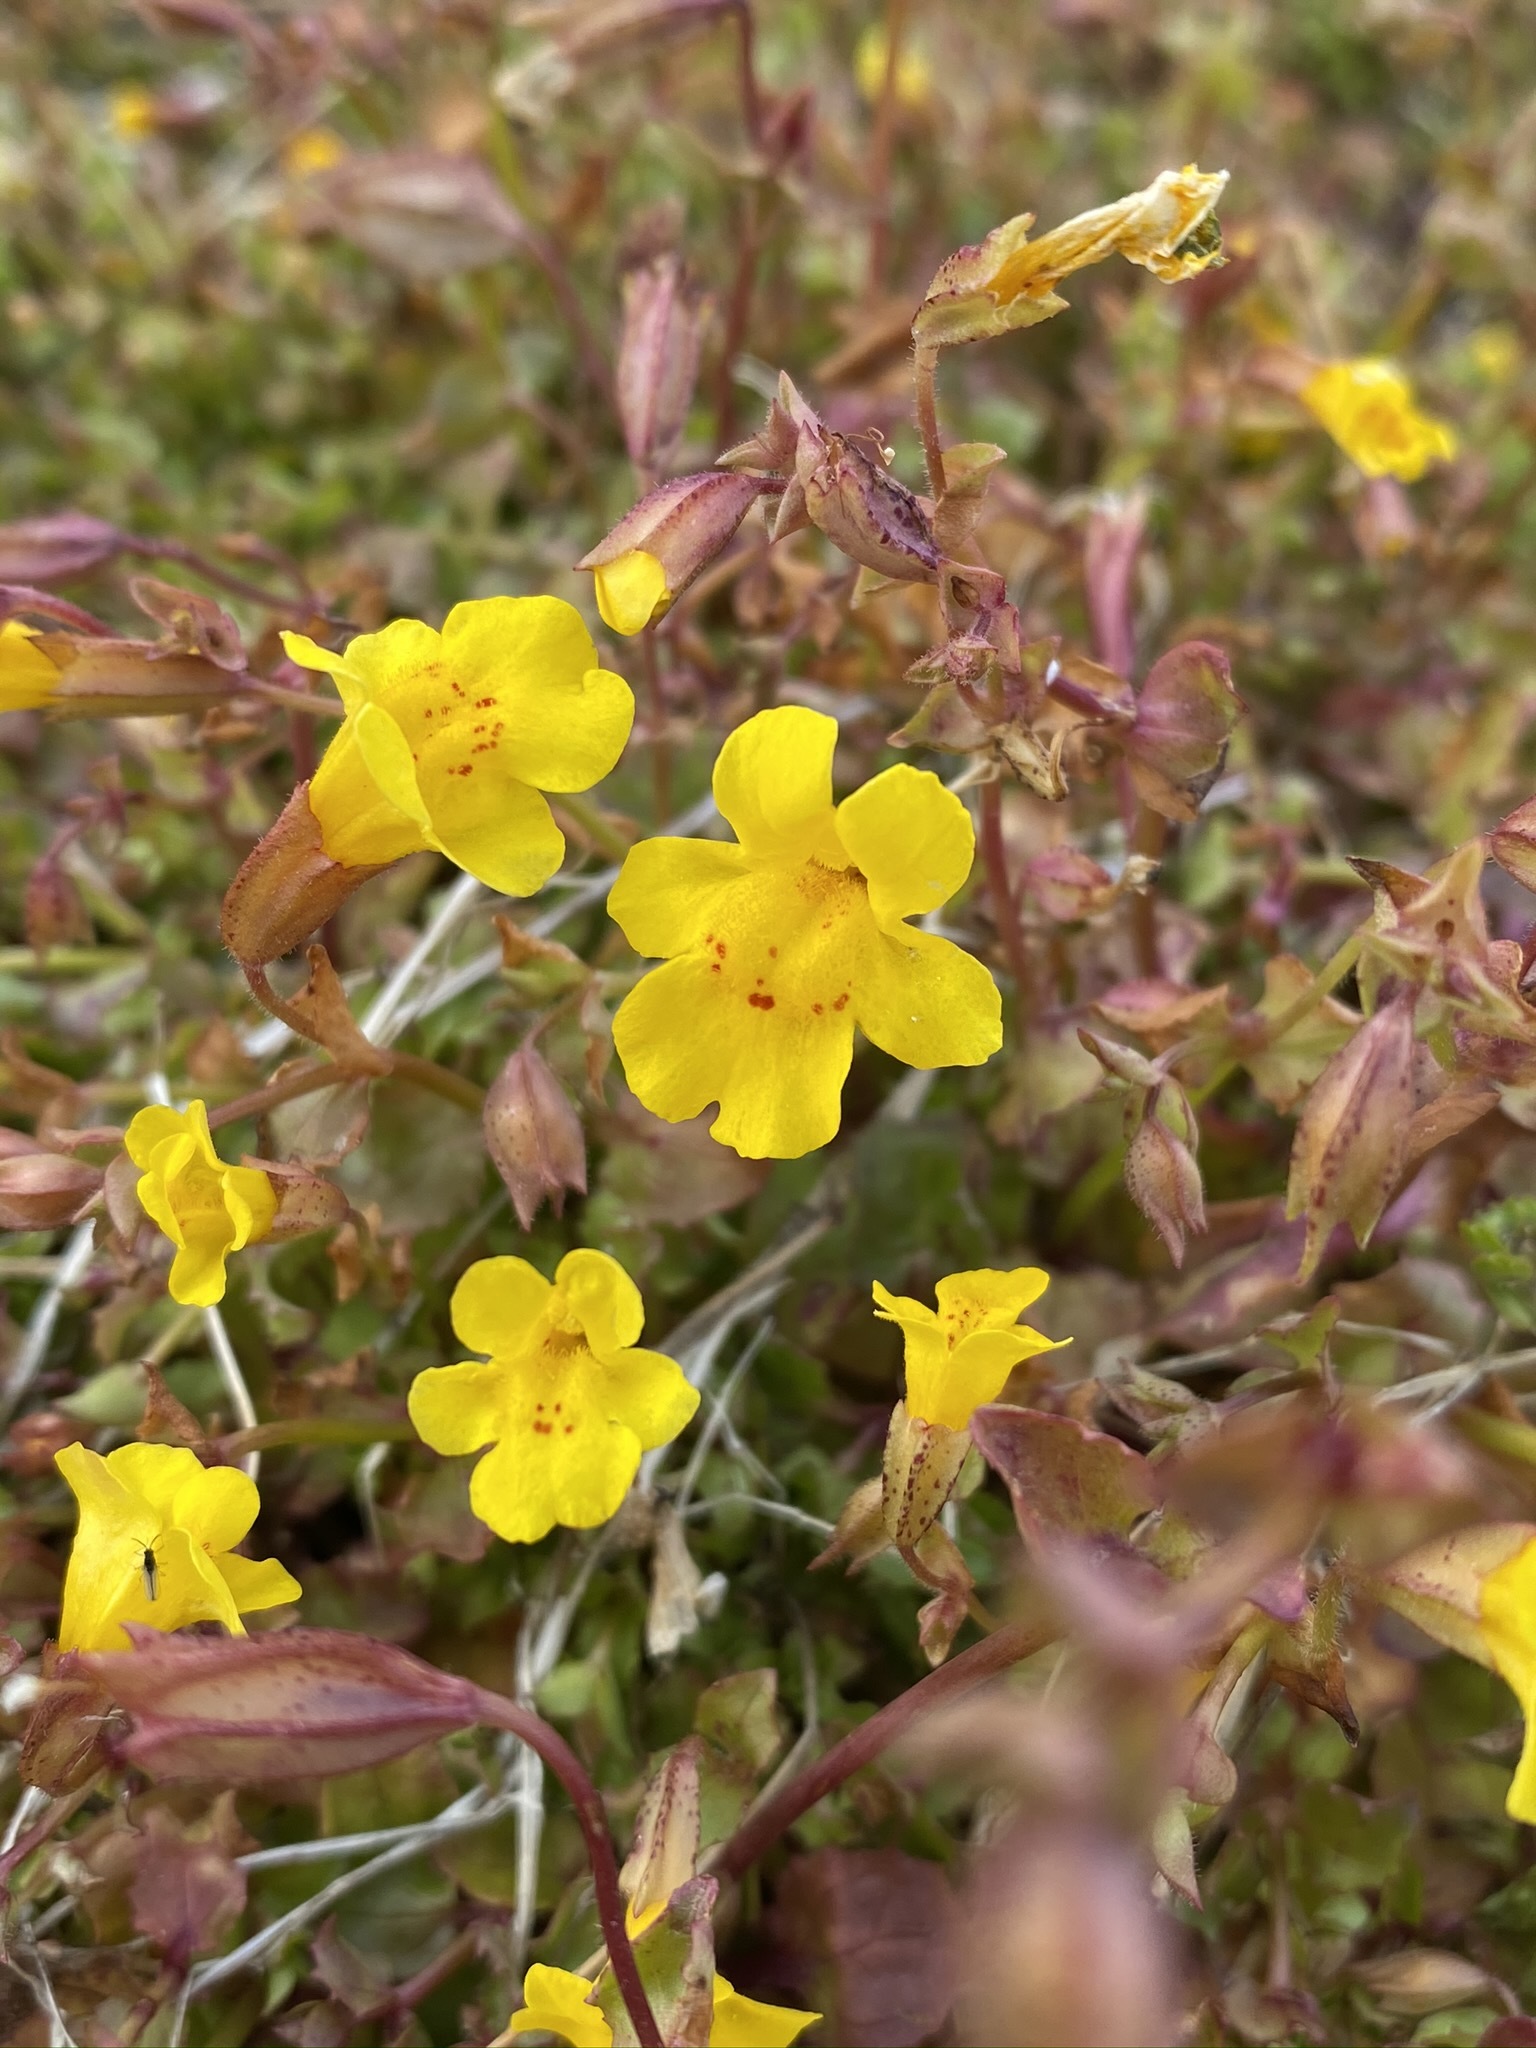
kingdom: Plantae
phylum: Tracheophyta
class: Magnoliopsida
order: Lamiales
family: Phrymaceae
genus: Erythranthe
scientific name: Erythranthe guttata
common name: Monkeyflower
